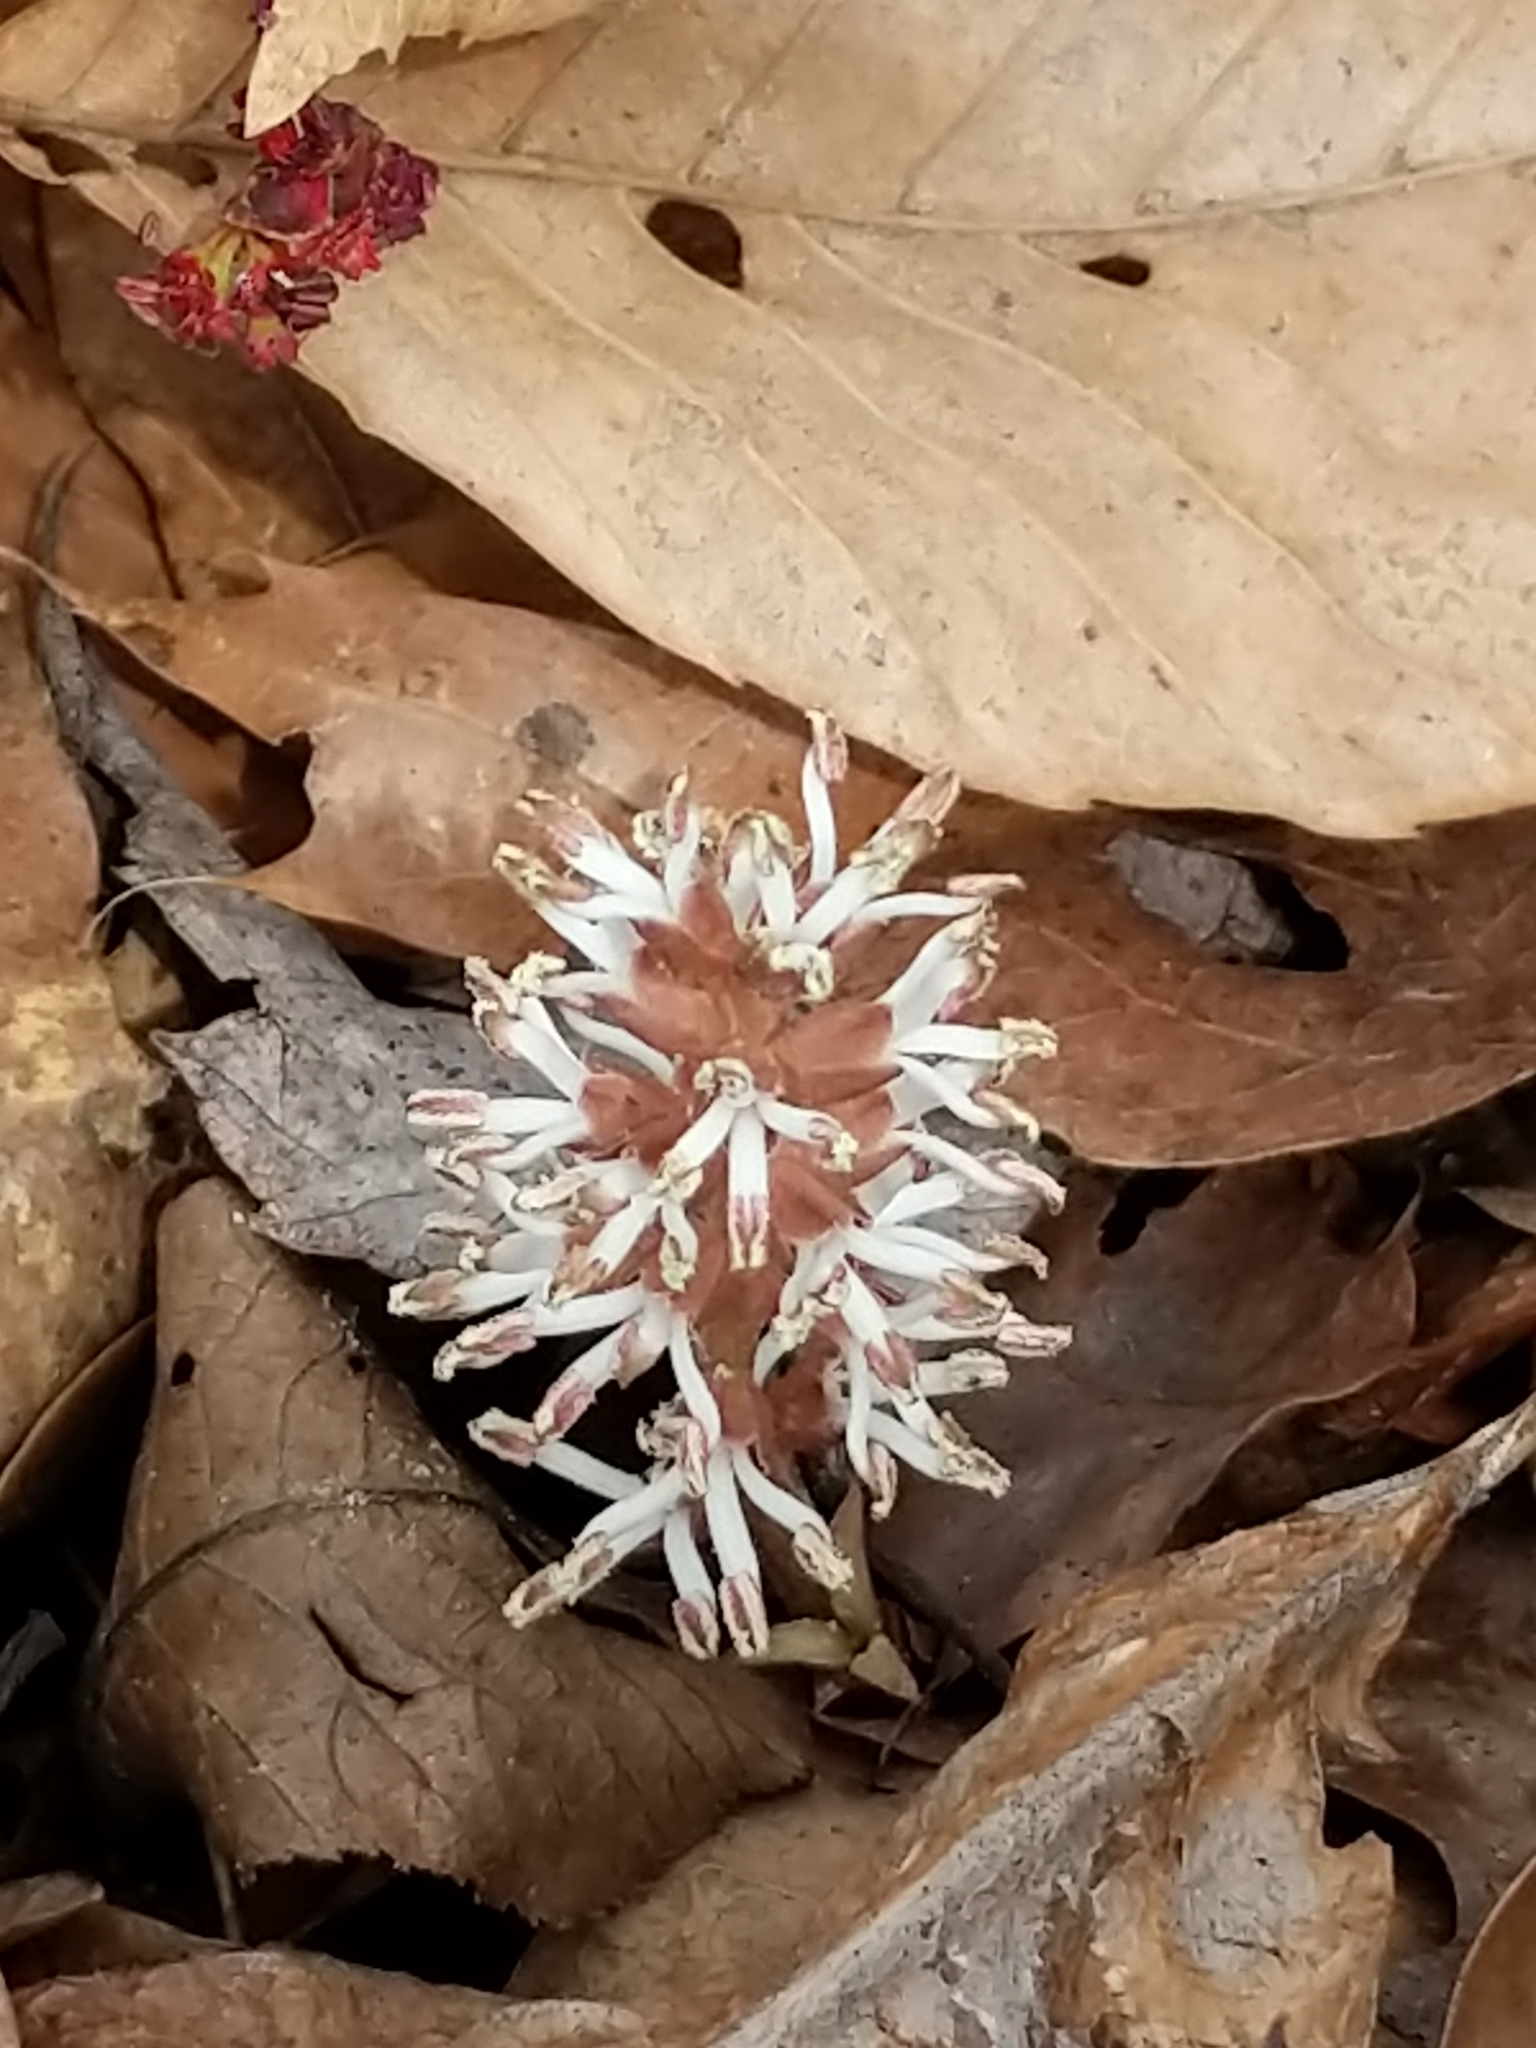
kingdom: Plantae
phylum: Tracheophyta
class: Magnoliopsida
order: Buxales
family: Buxaceae
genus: Pachysandra
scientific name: Pachysandra procumbens
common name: Mountain-spurge
